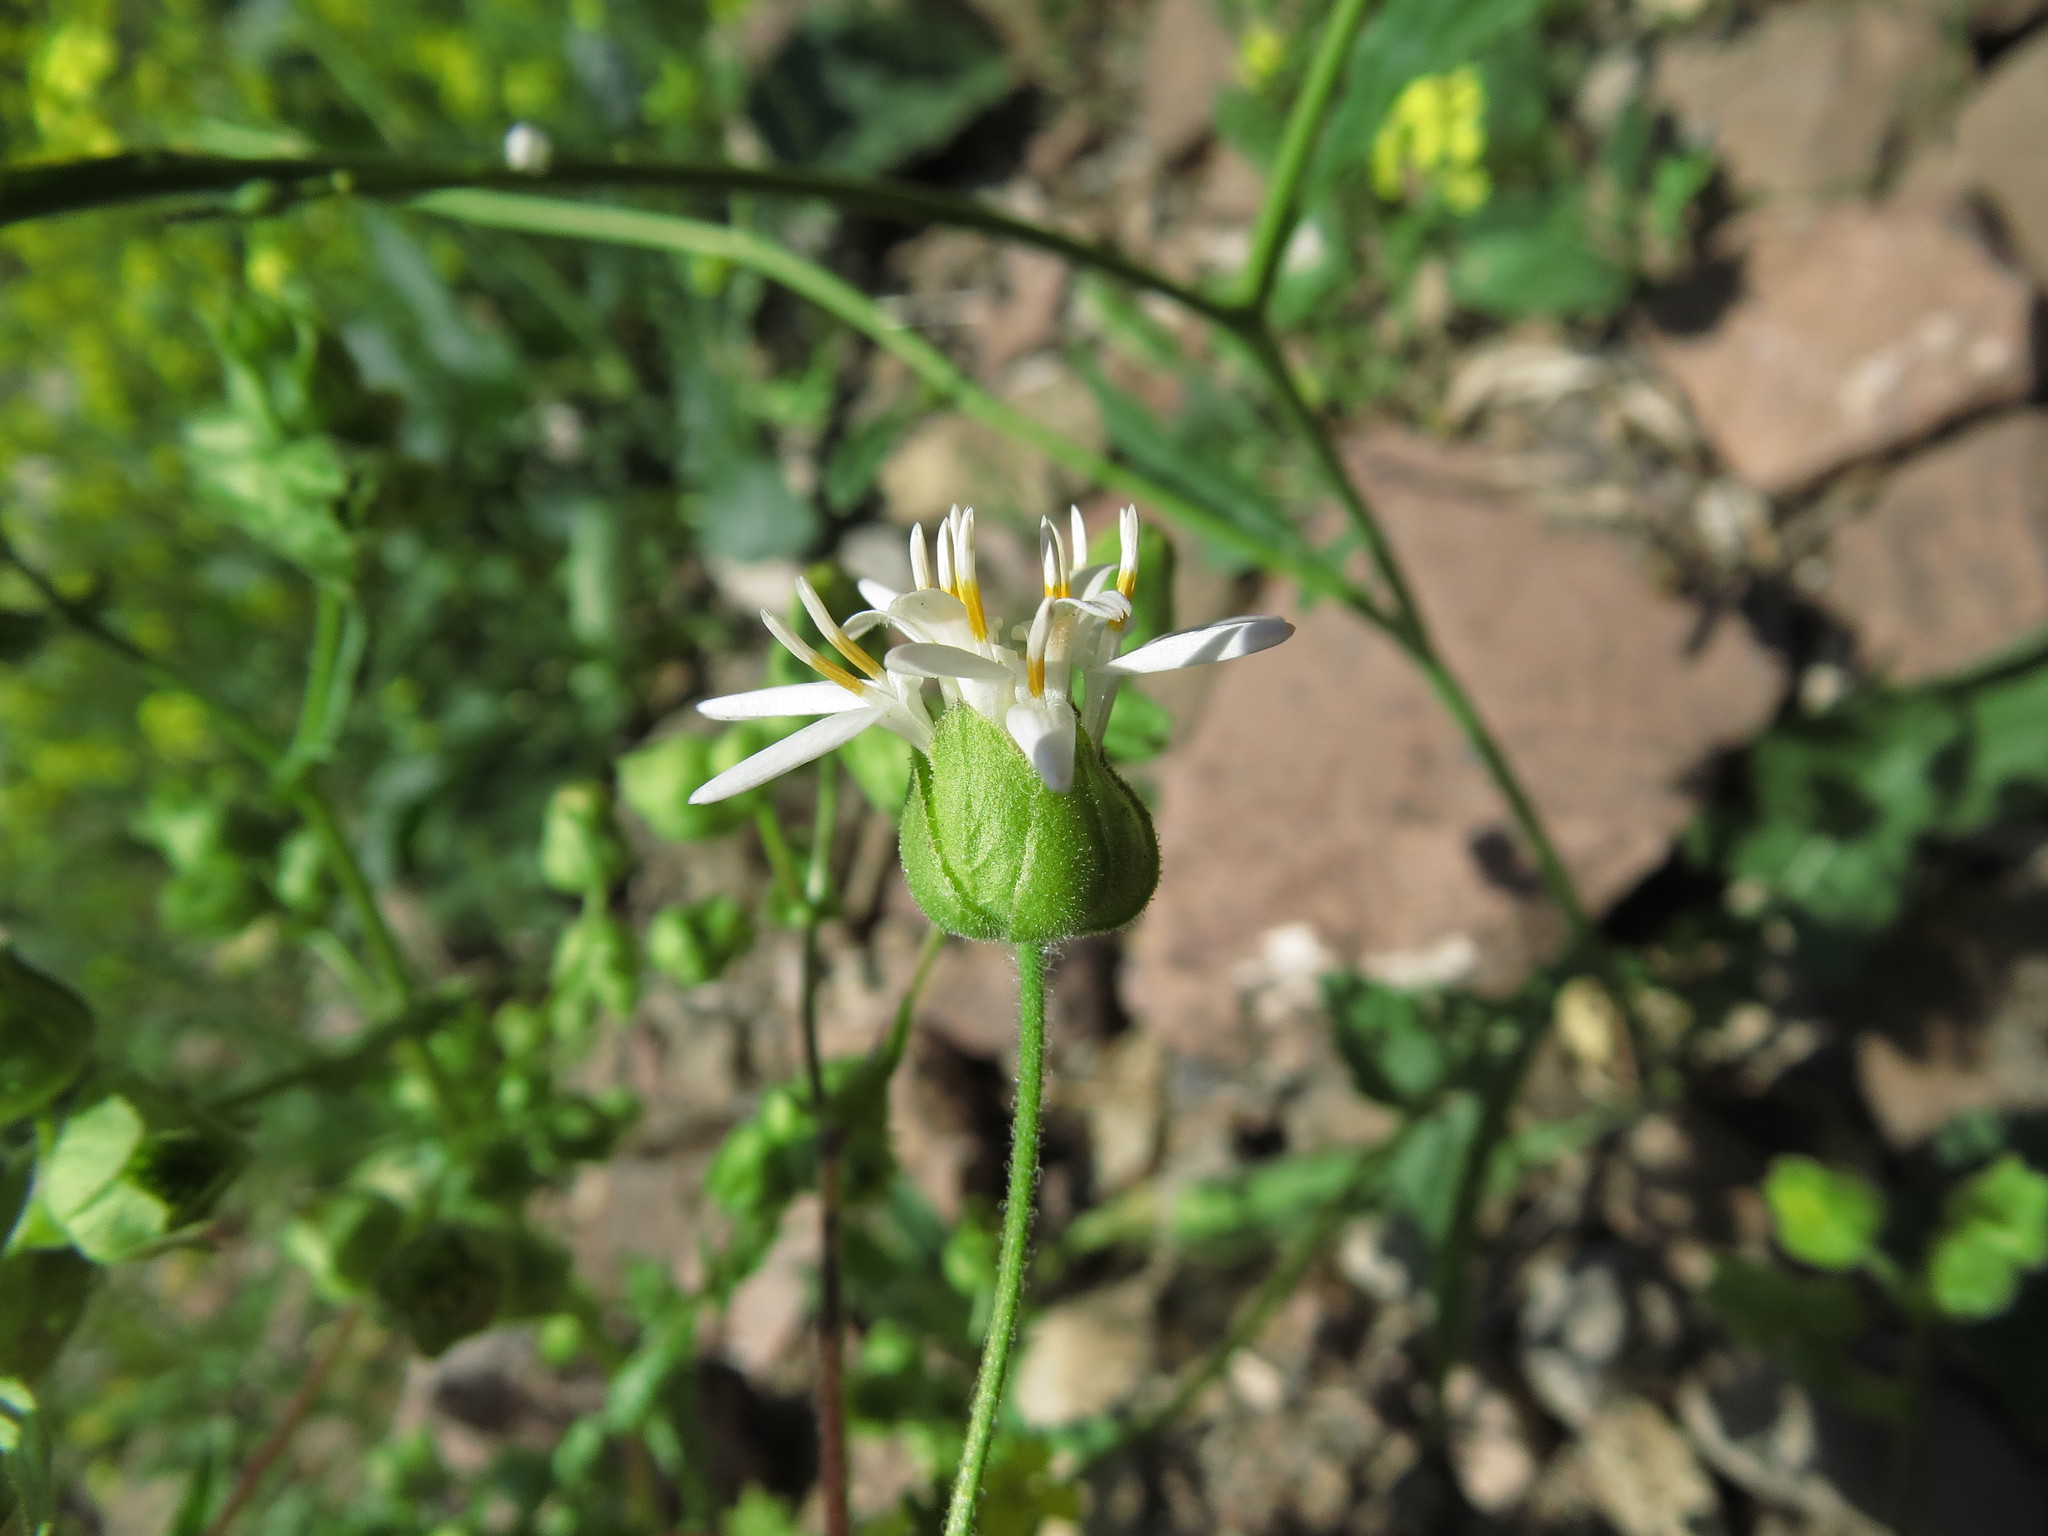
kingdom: Plantae
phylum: Tracheophyta
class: Magnoliopsida
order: Asterales
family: Asteraceae
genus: Moscharia
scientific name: Moscharia pinnatifida
